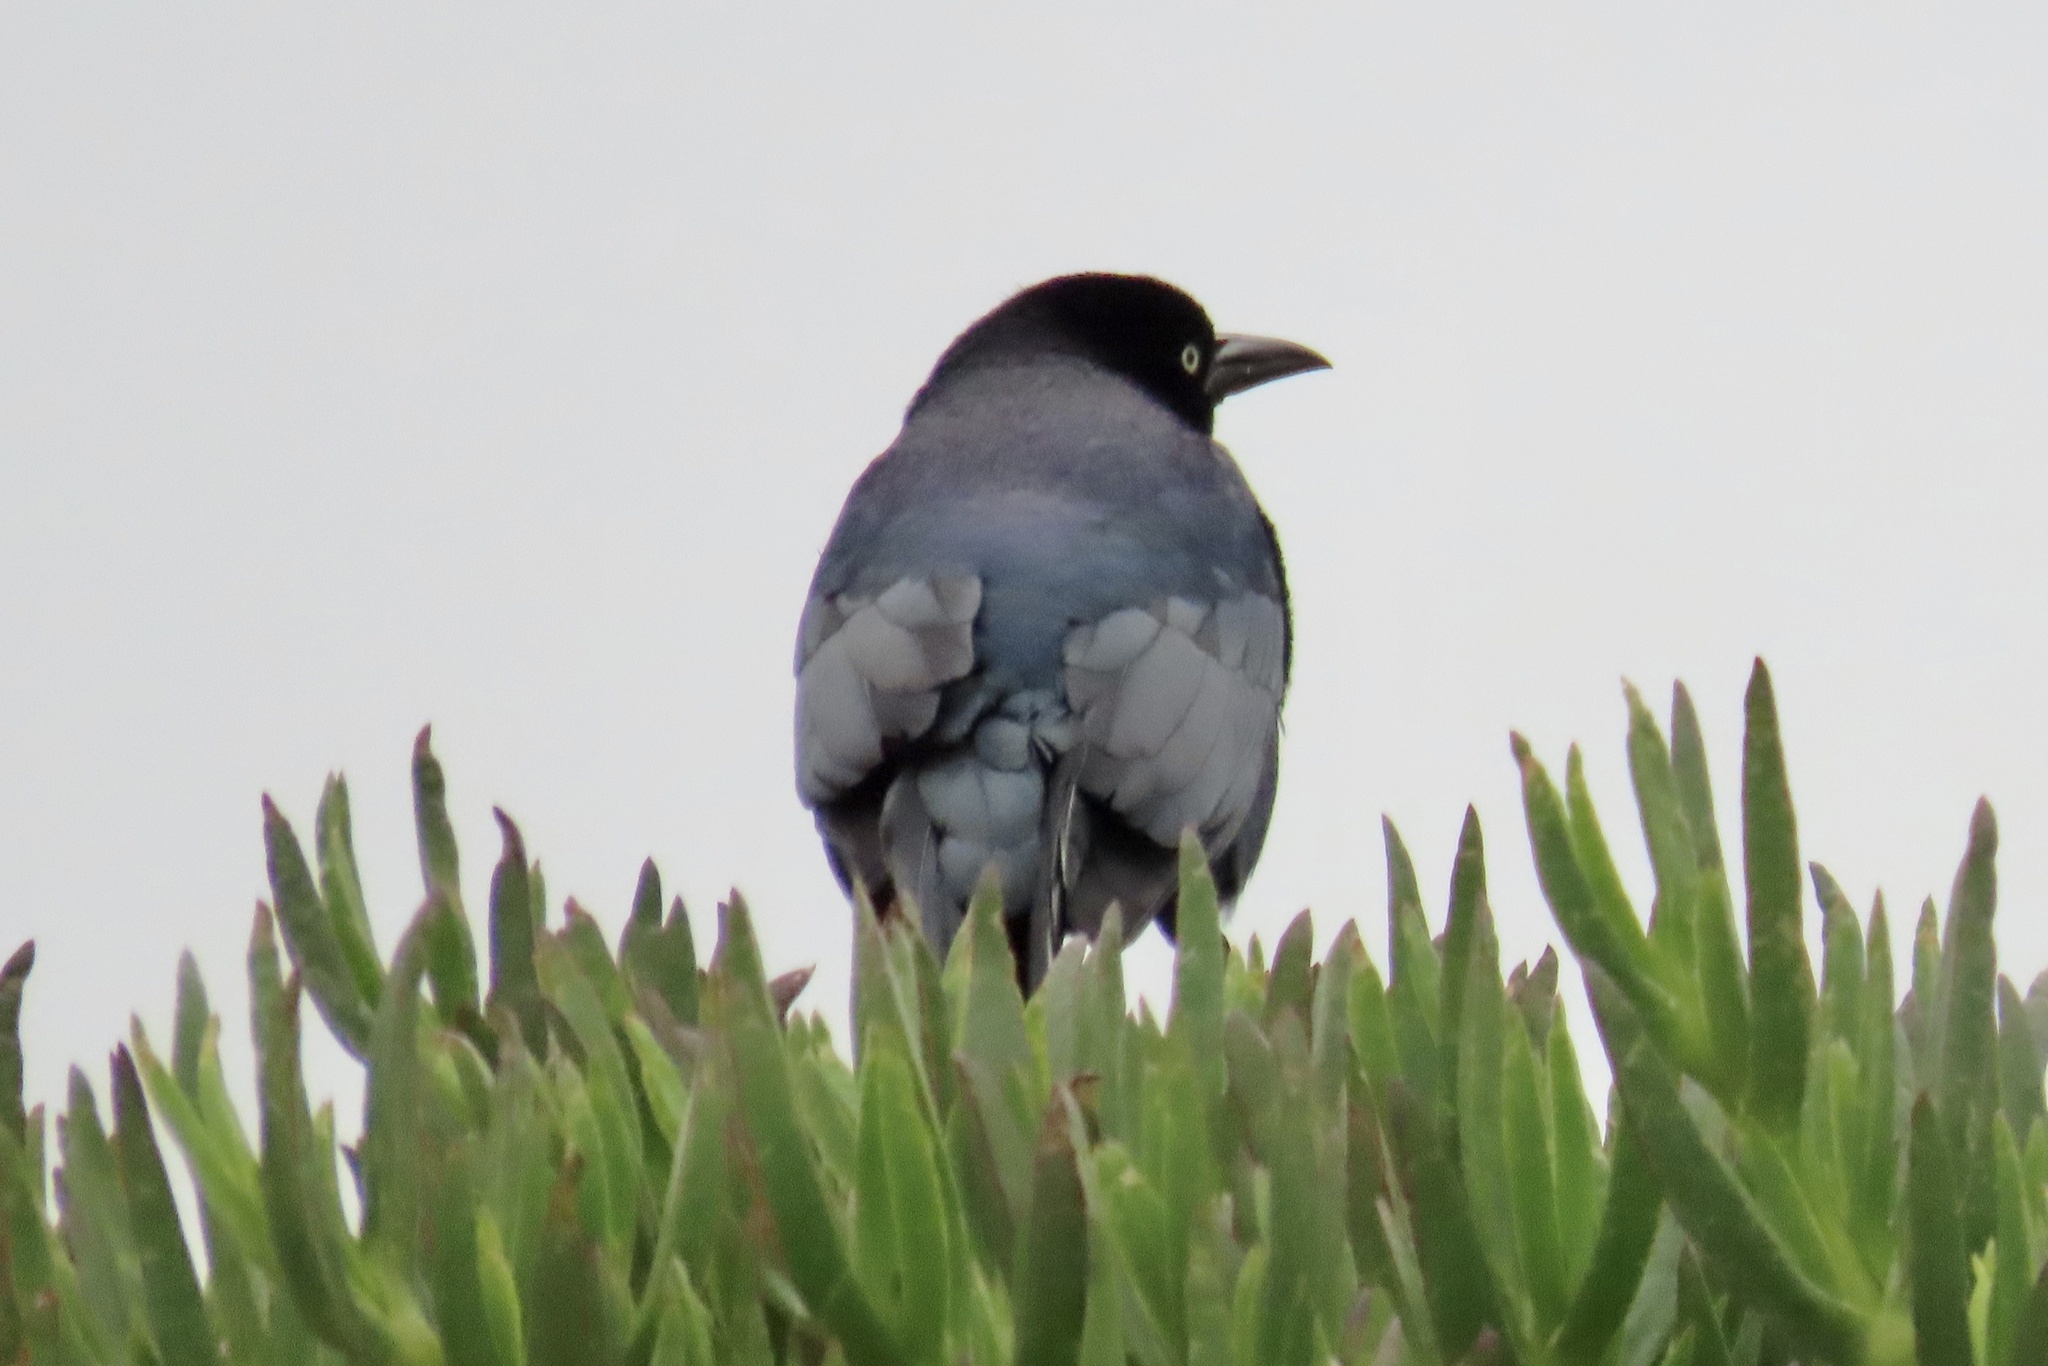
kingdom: Animalia
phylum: Chordata
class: Aves
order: Passeriformes
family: Icteridae
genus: Quiscalus
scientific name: Quiscalus mexicanus
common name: Great-tailed grackle
